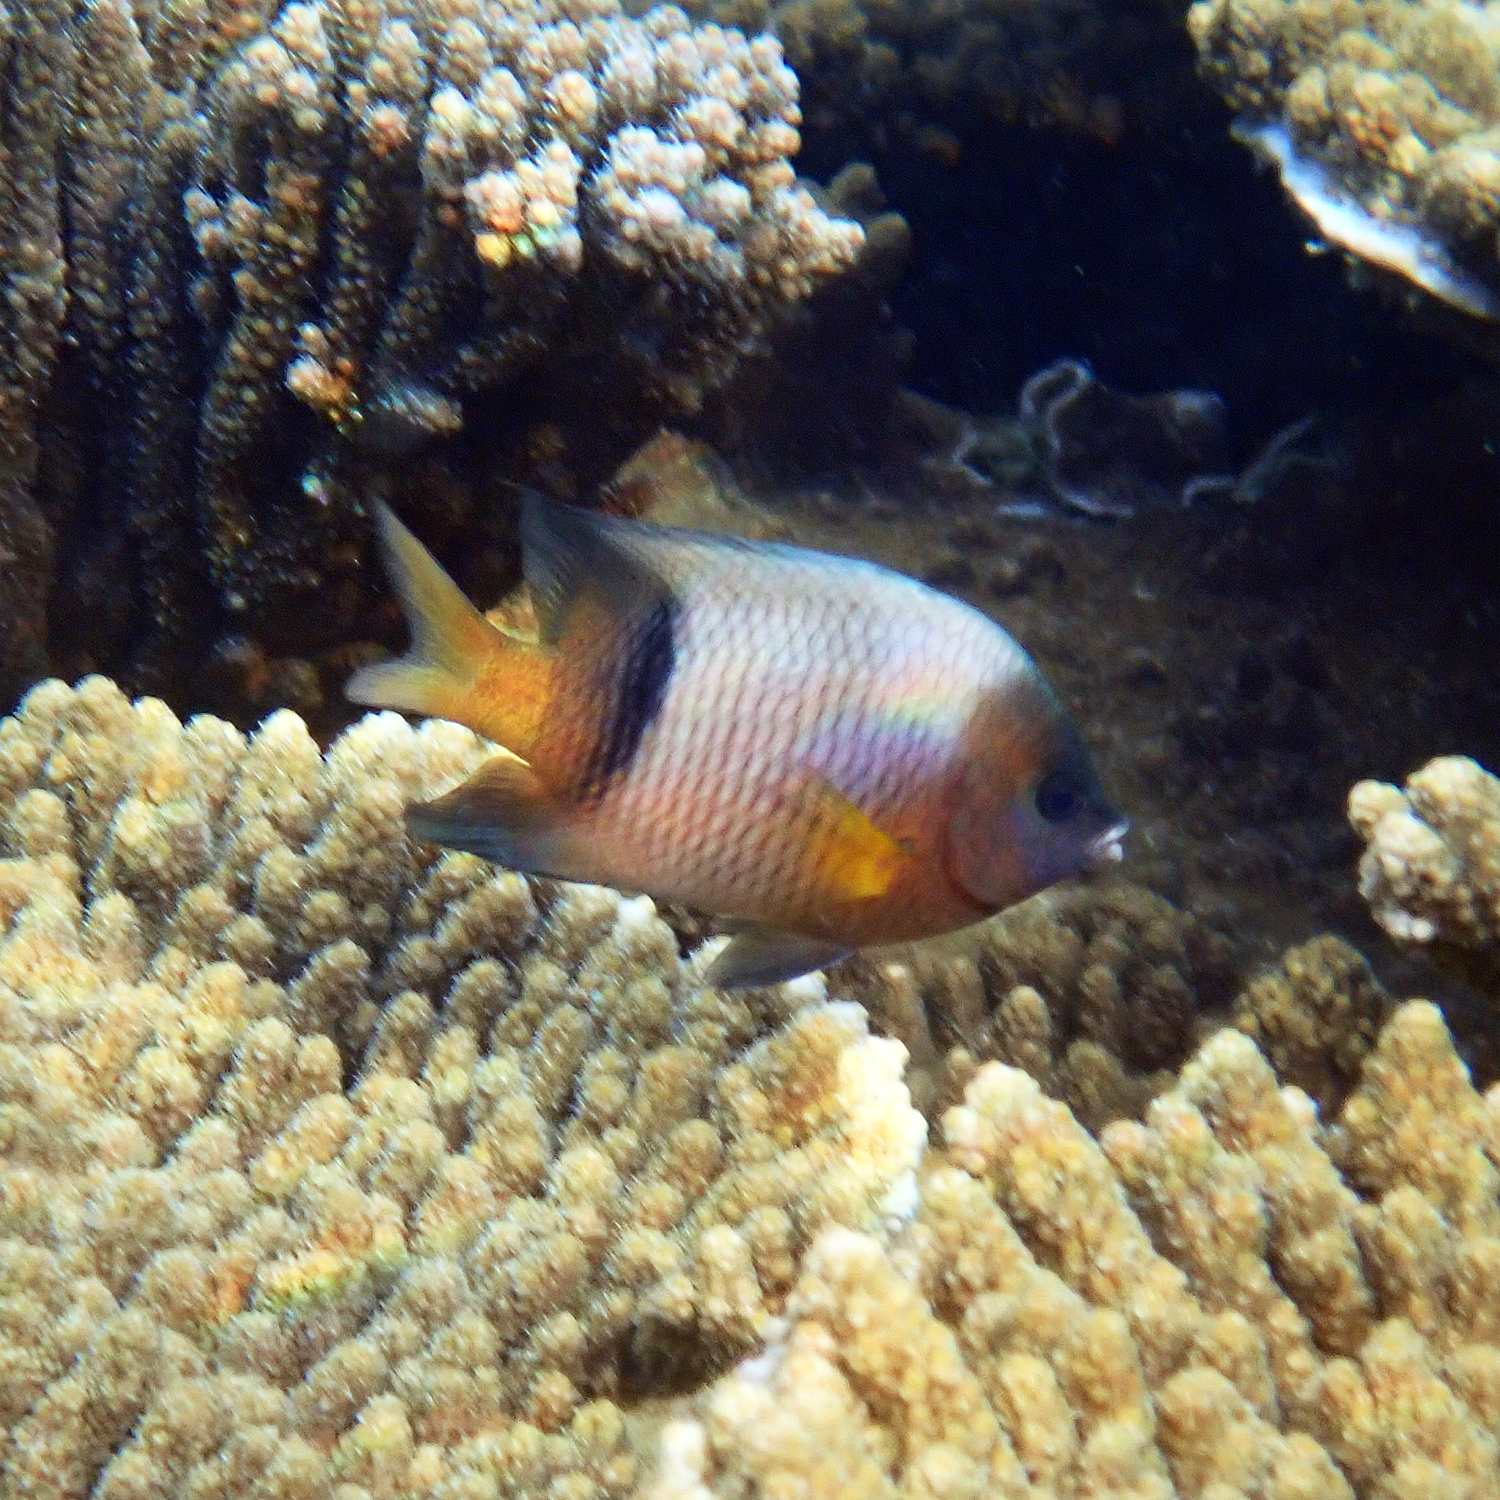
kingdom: Animalia
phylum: Chordata
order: Perciformes
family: Pomacentridae
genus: Plectroglyphidodon
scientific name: Plectroglyphidodon dickii
